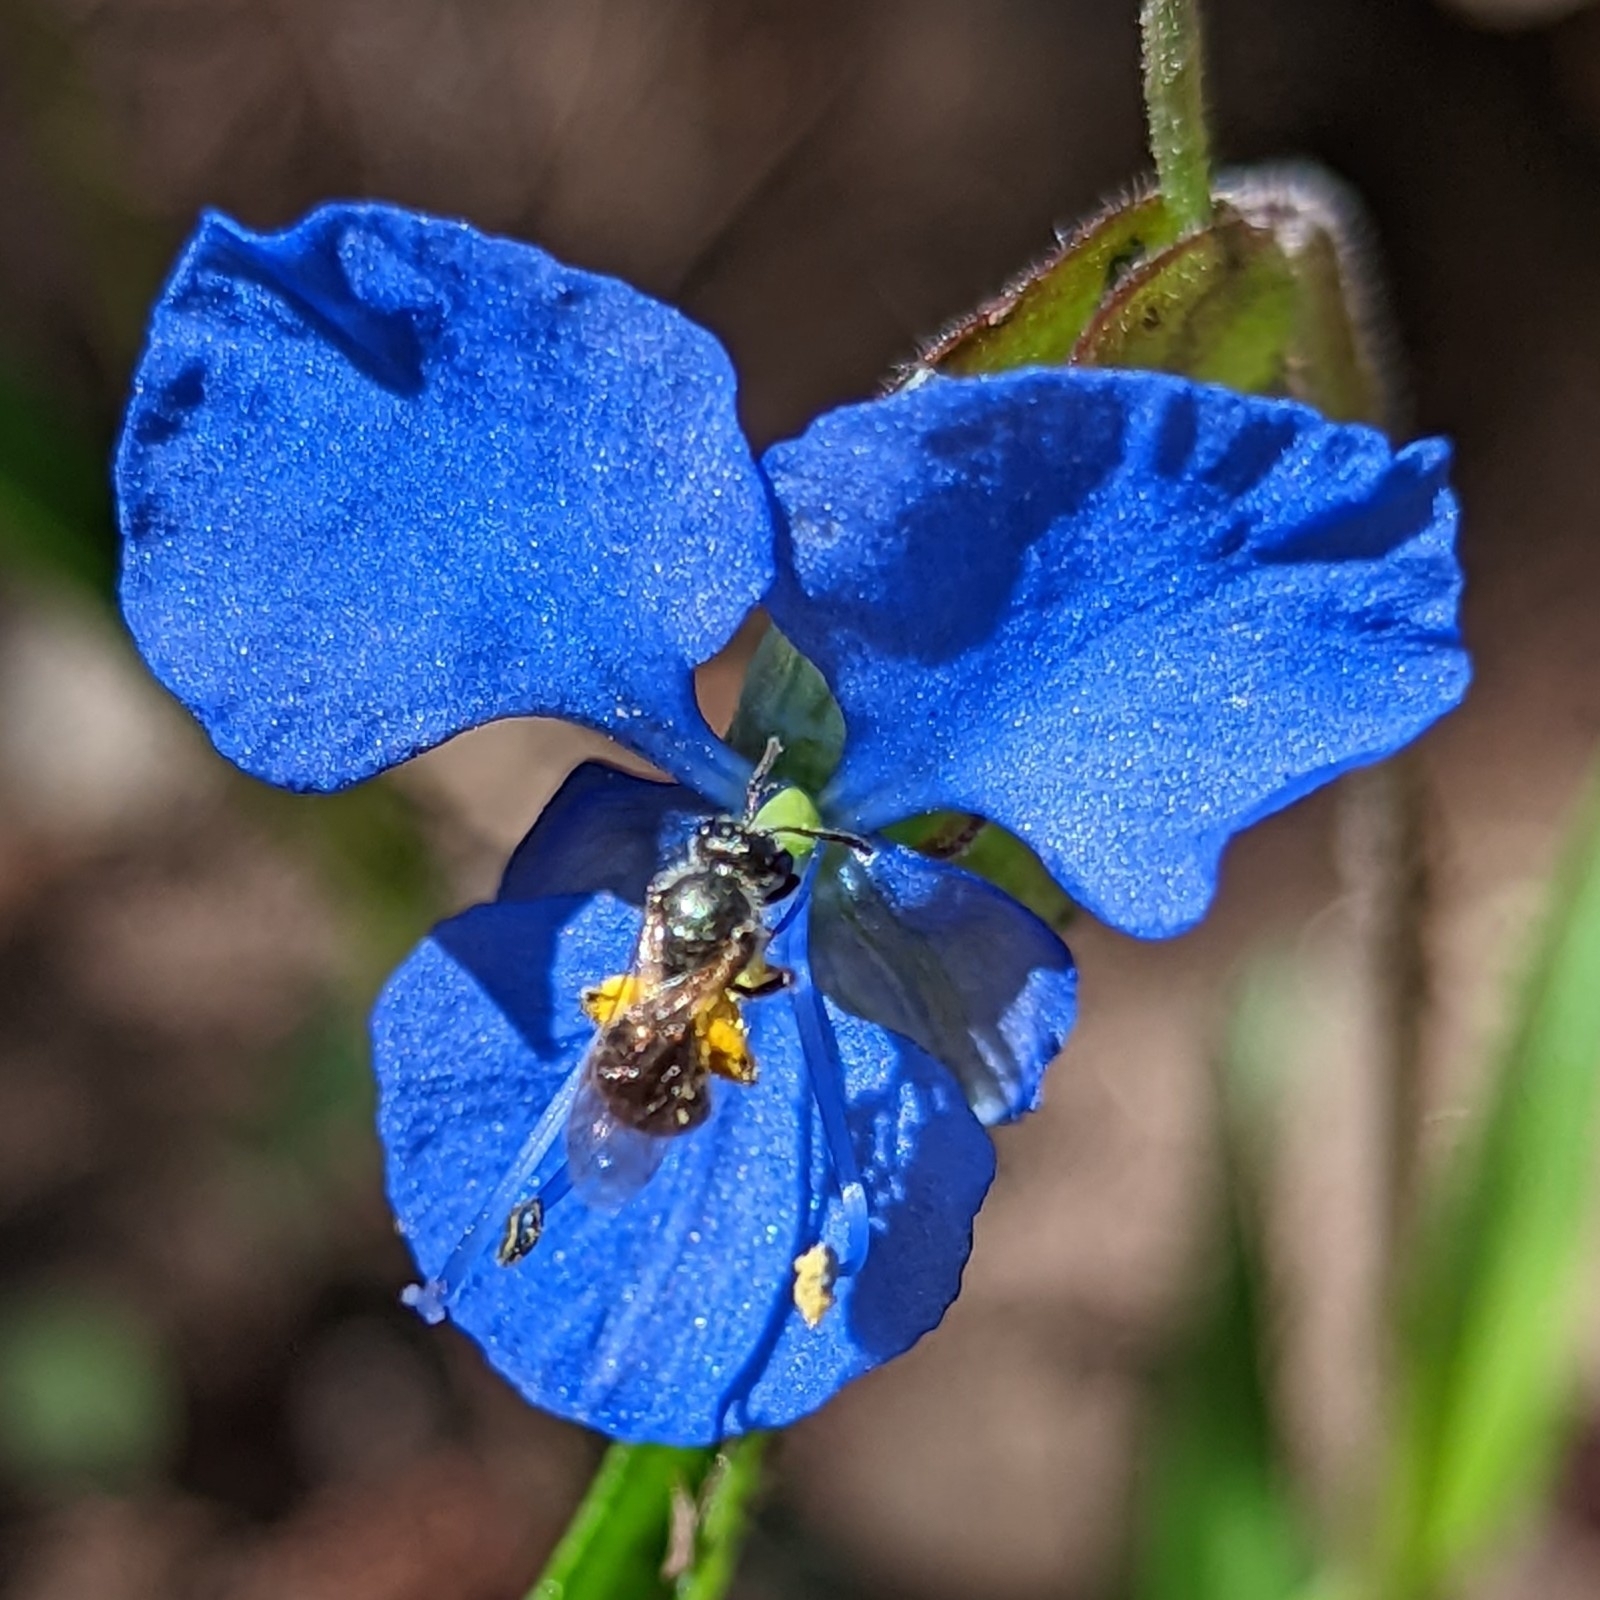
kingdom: Animalia
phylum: Arthropoda
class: Insecta
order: Hymenoptera
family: Halictidae
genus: Dialictus
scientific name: Dialictus
